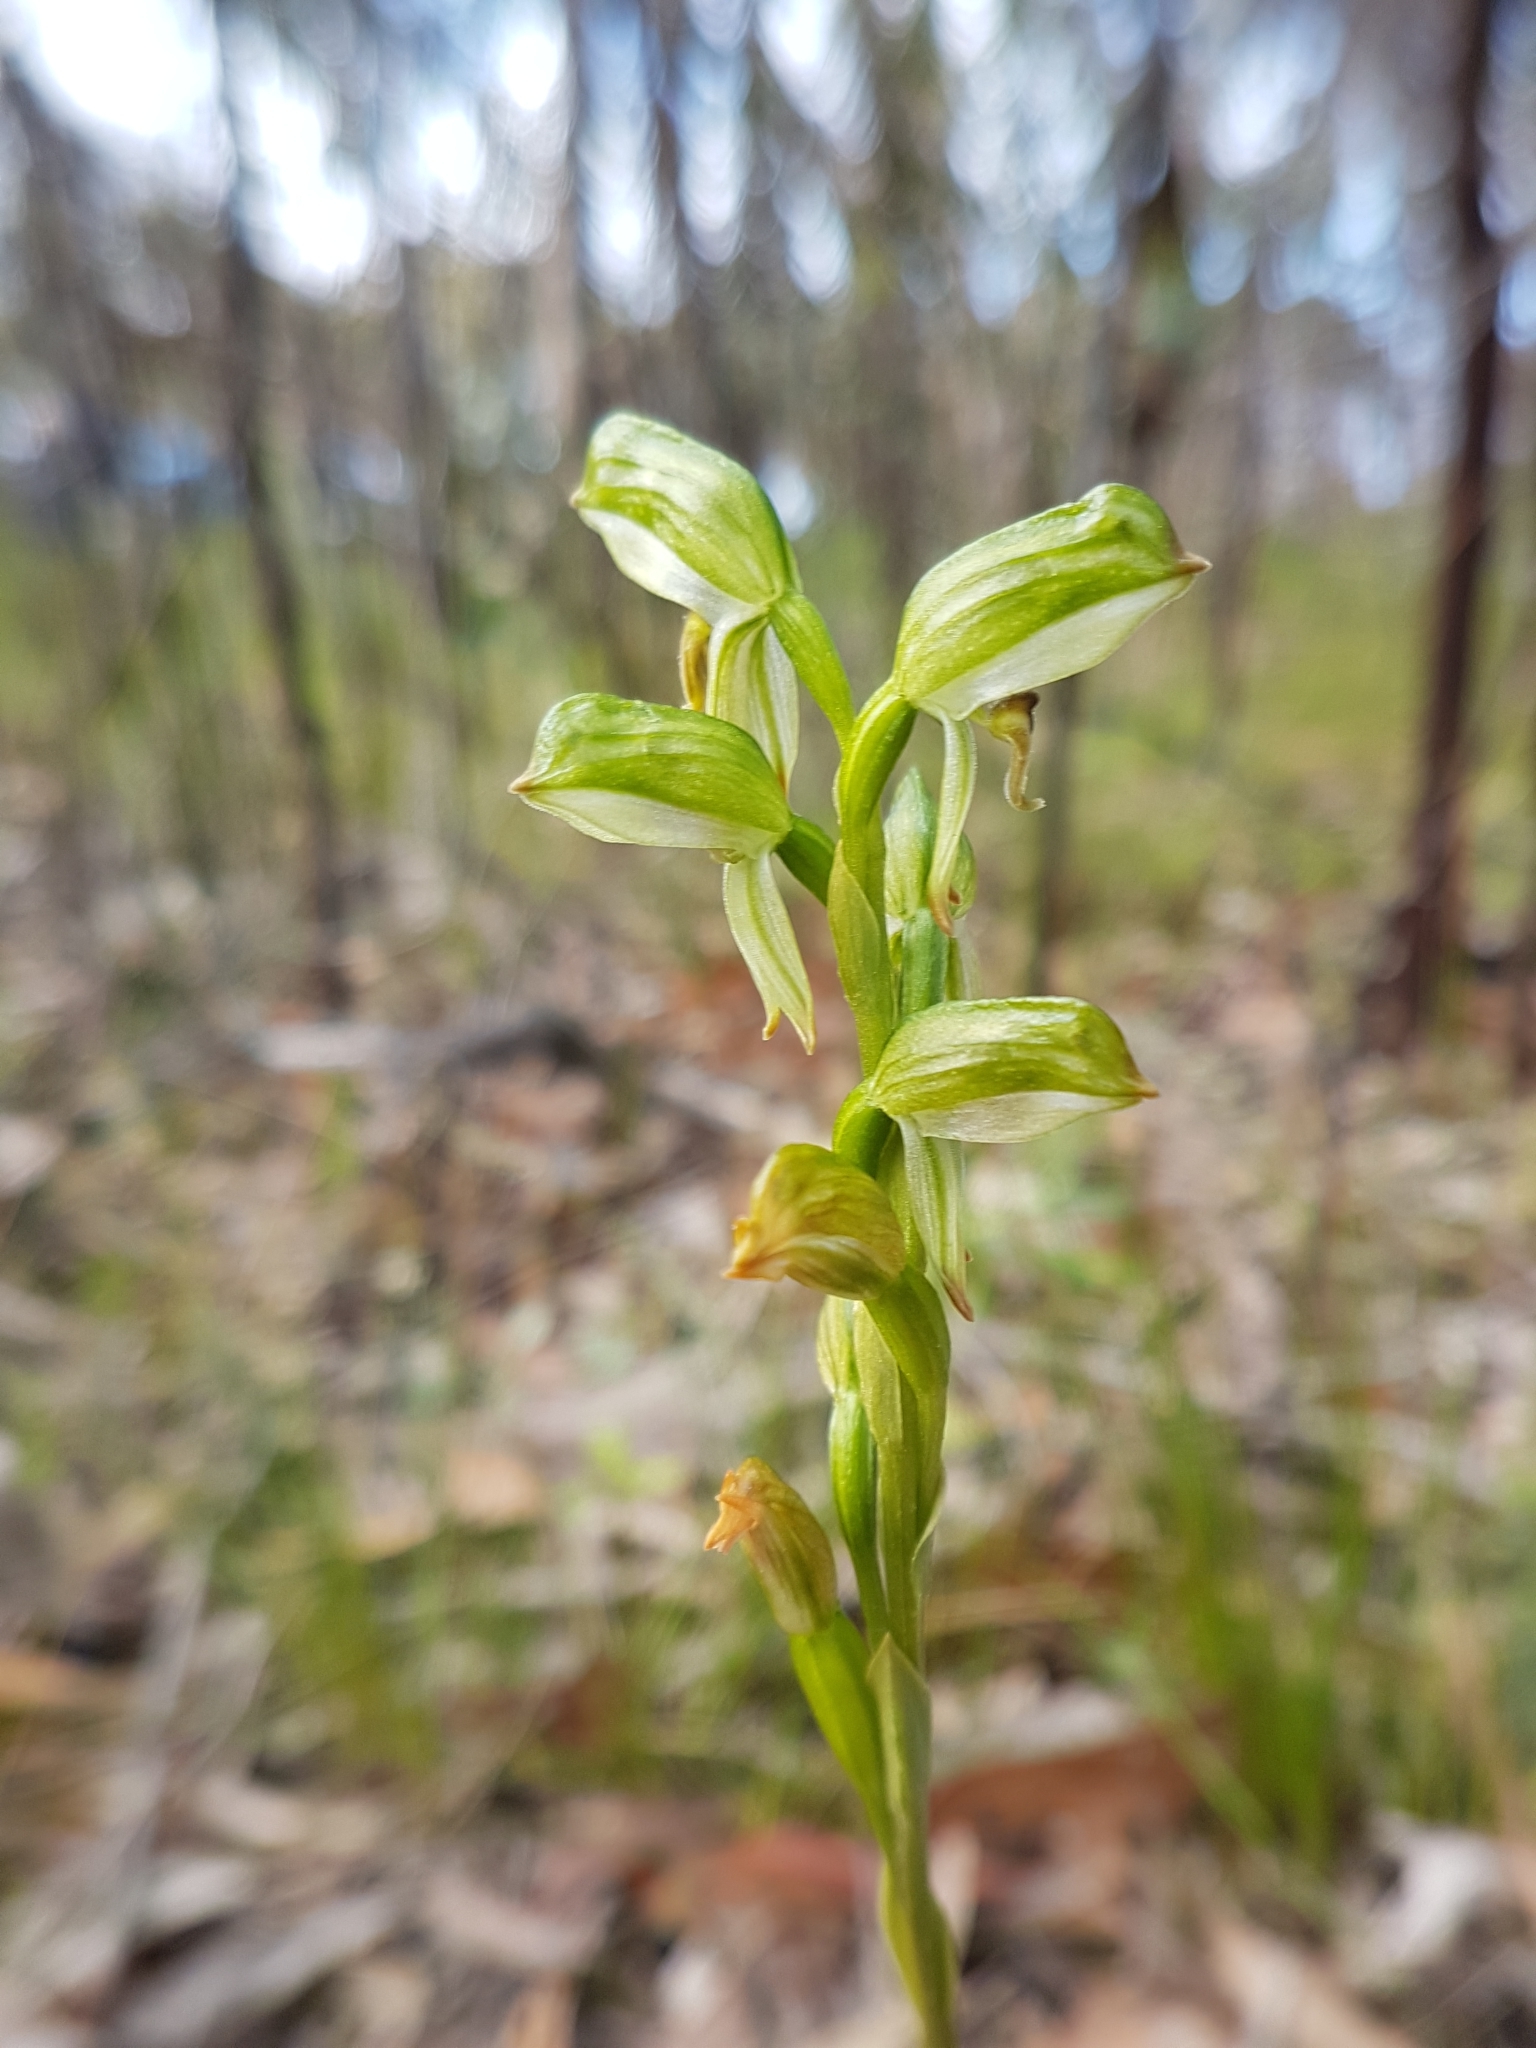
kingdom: Plantae
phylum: Tracheophyta
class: Liliopsida
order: Asparagales
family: Orchidaceae
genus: Pterostylis
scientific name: Pterostylis melagramma
